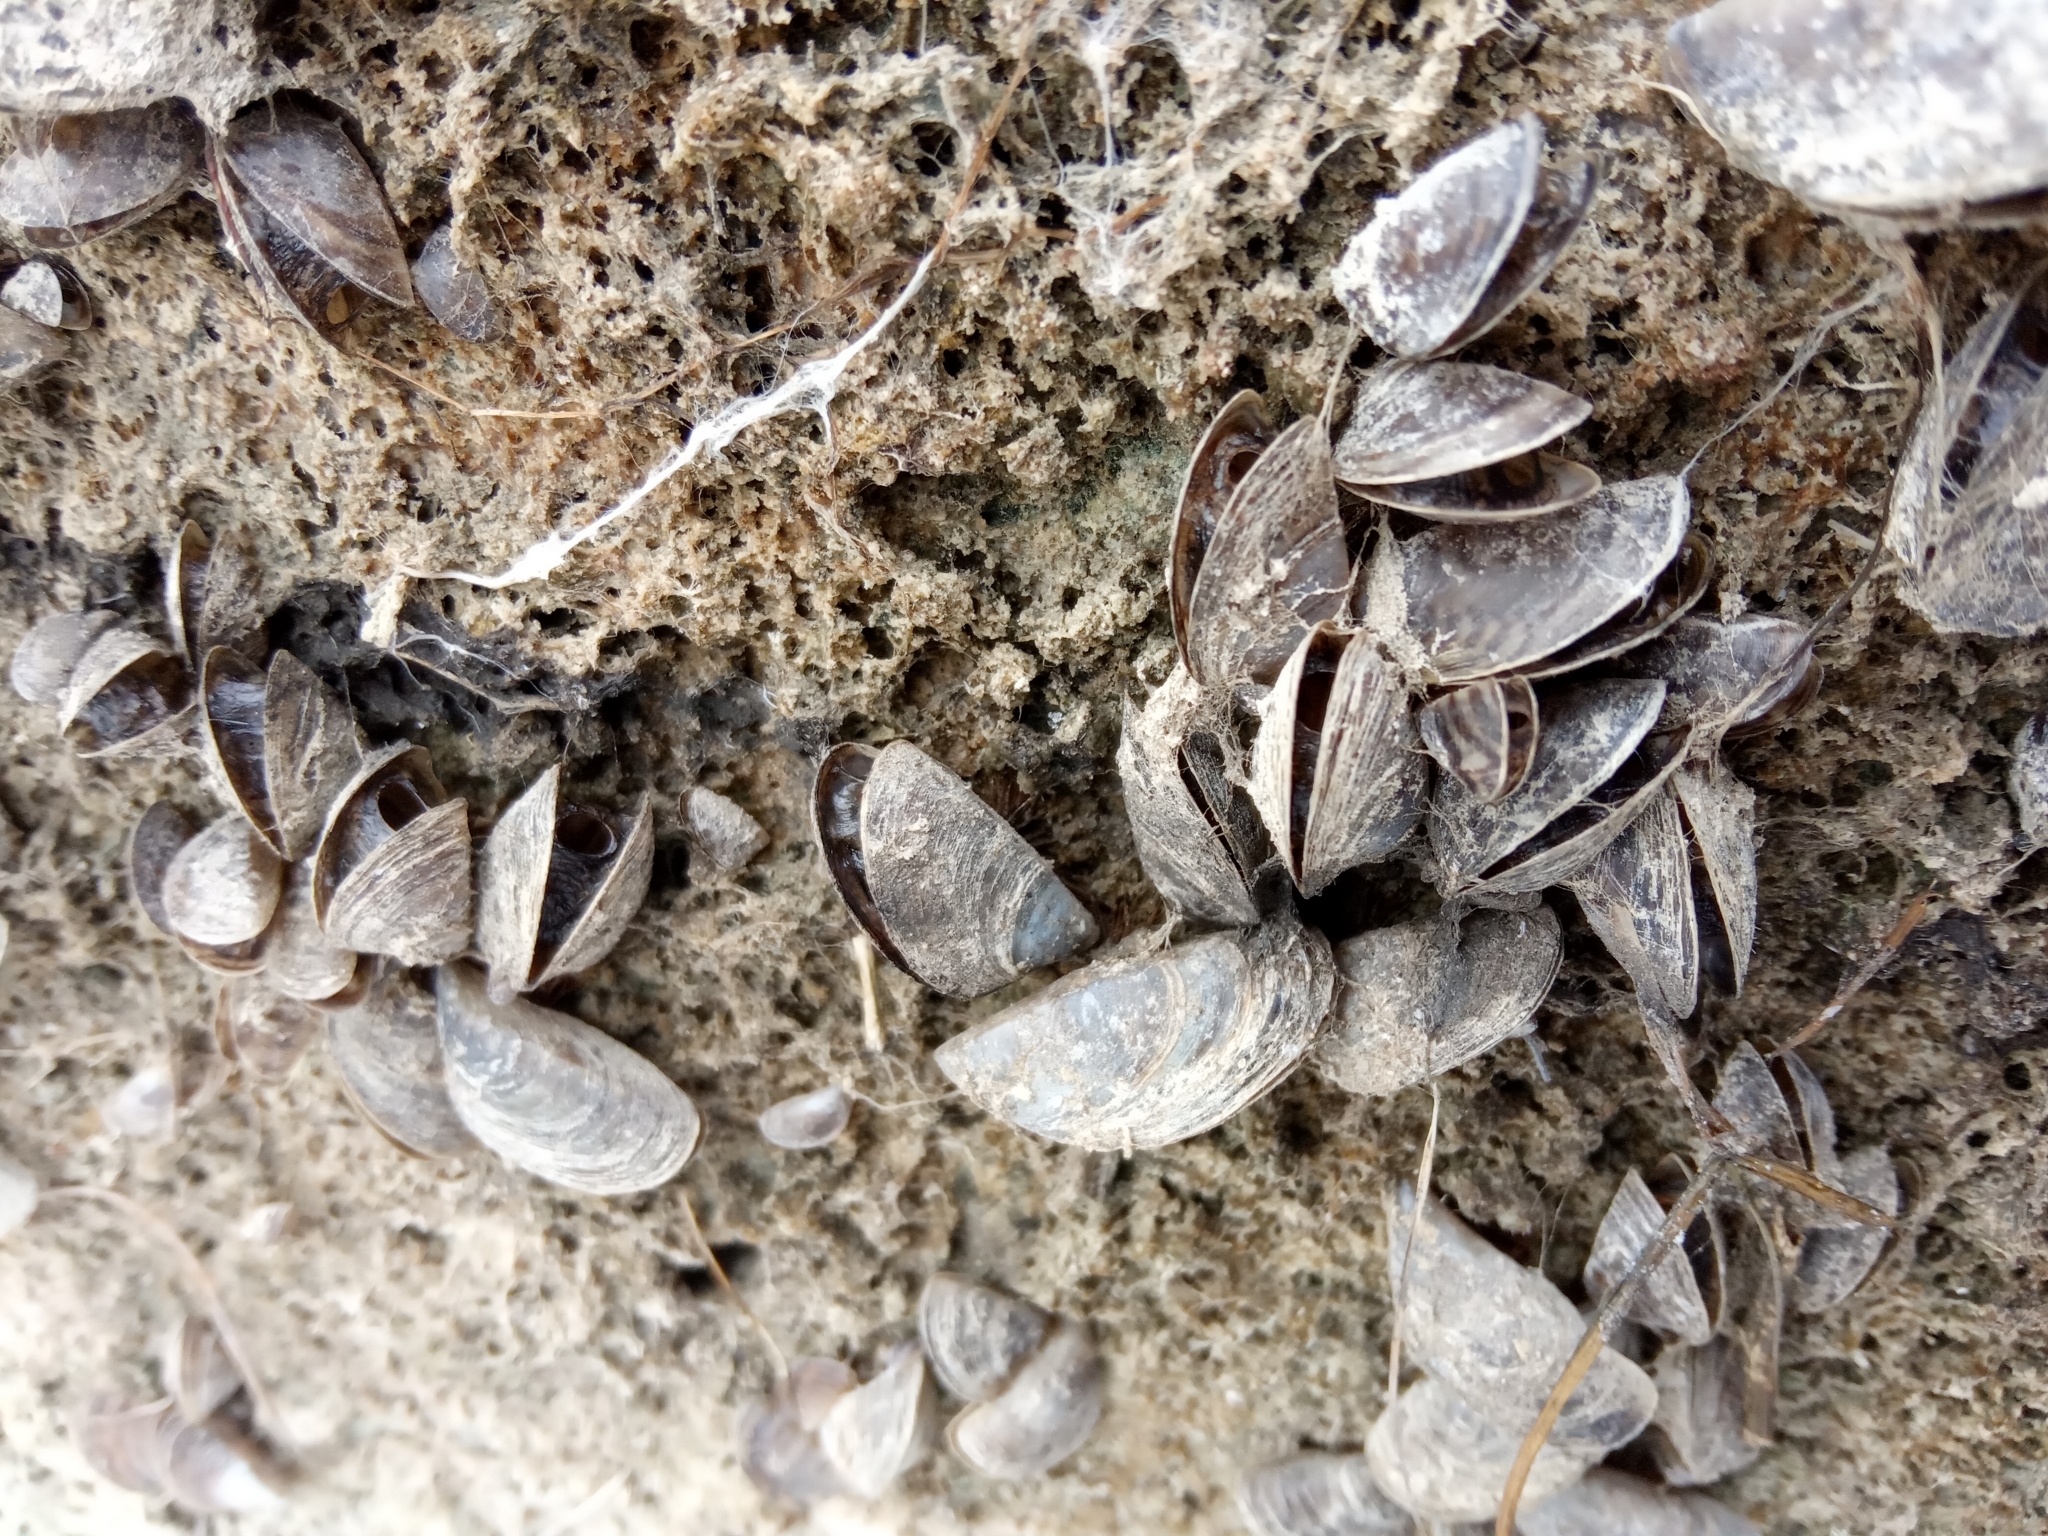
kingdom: Animalia
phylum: Mollusca
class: Bivalvia
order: Myida
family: Dreissenidae
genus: Dreissena
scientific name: Dreissena polymorpha
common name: Zebra mussel
